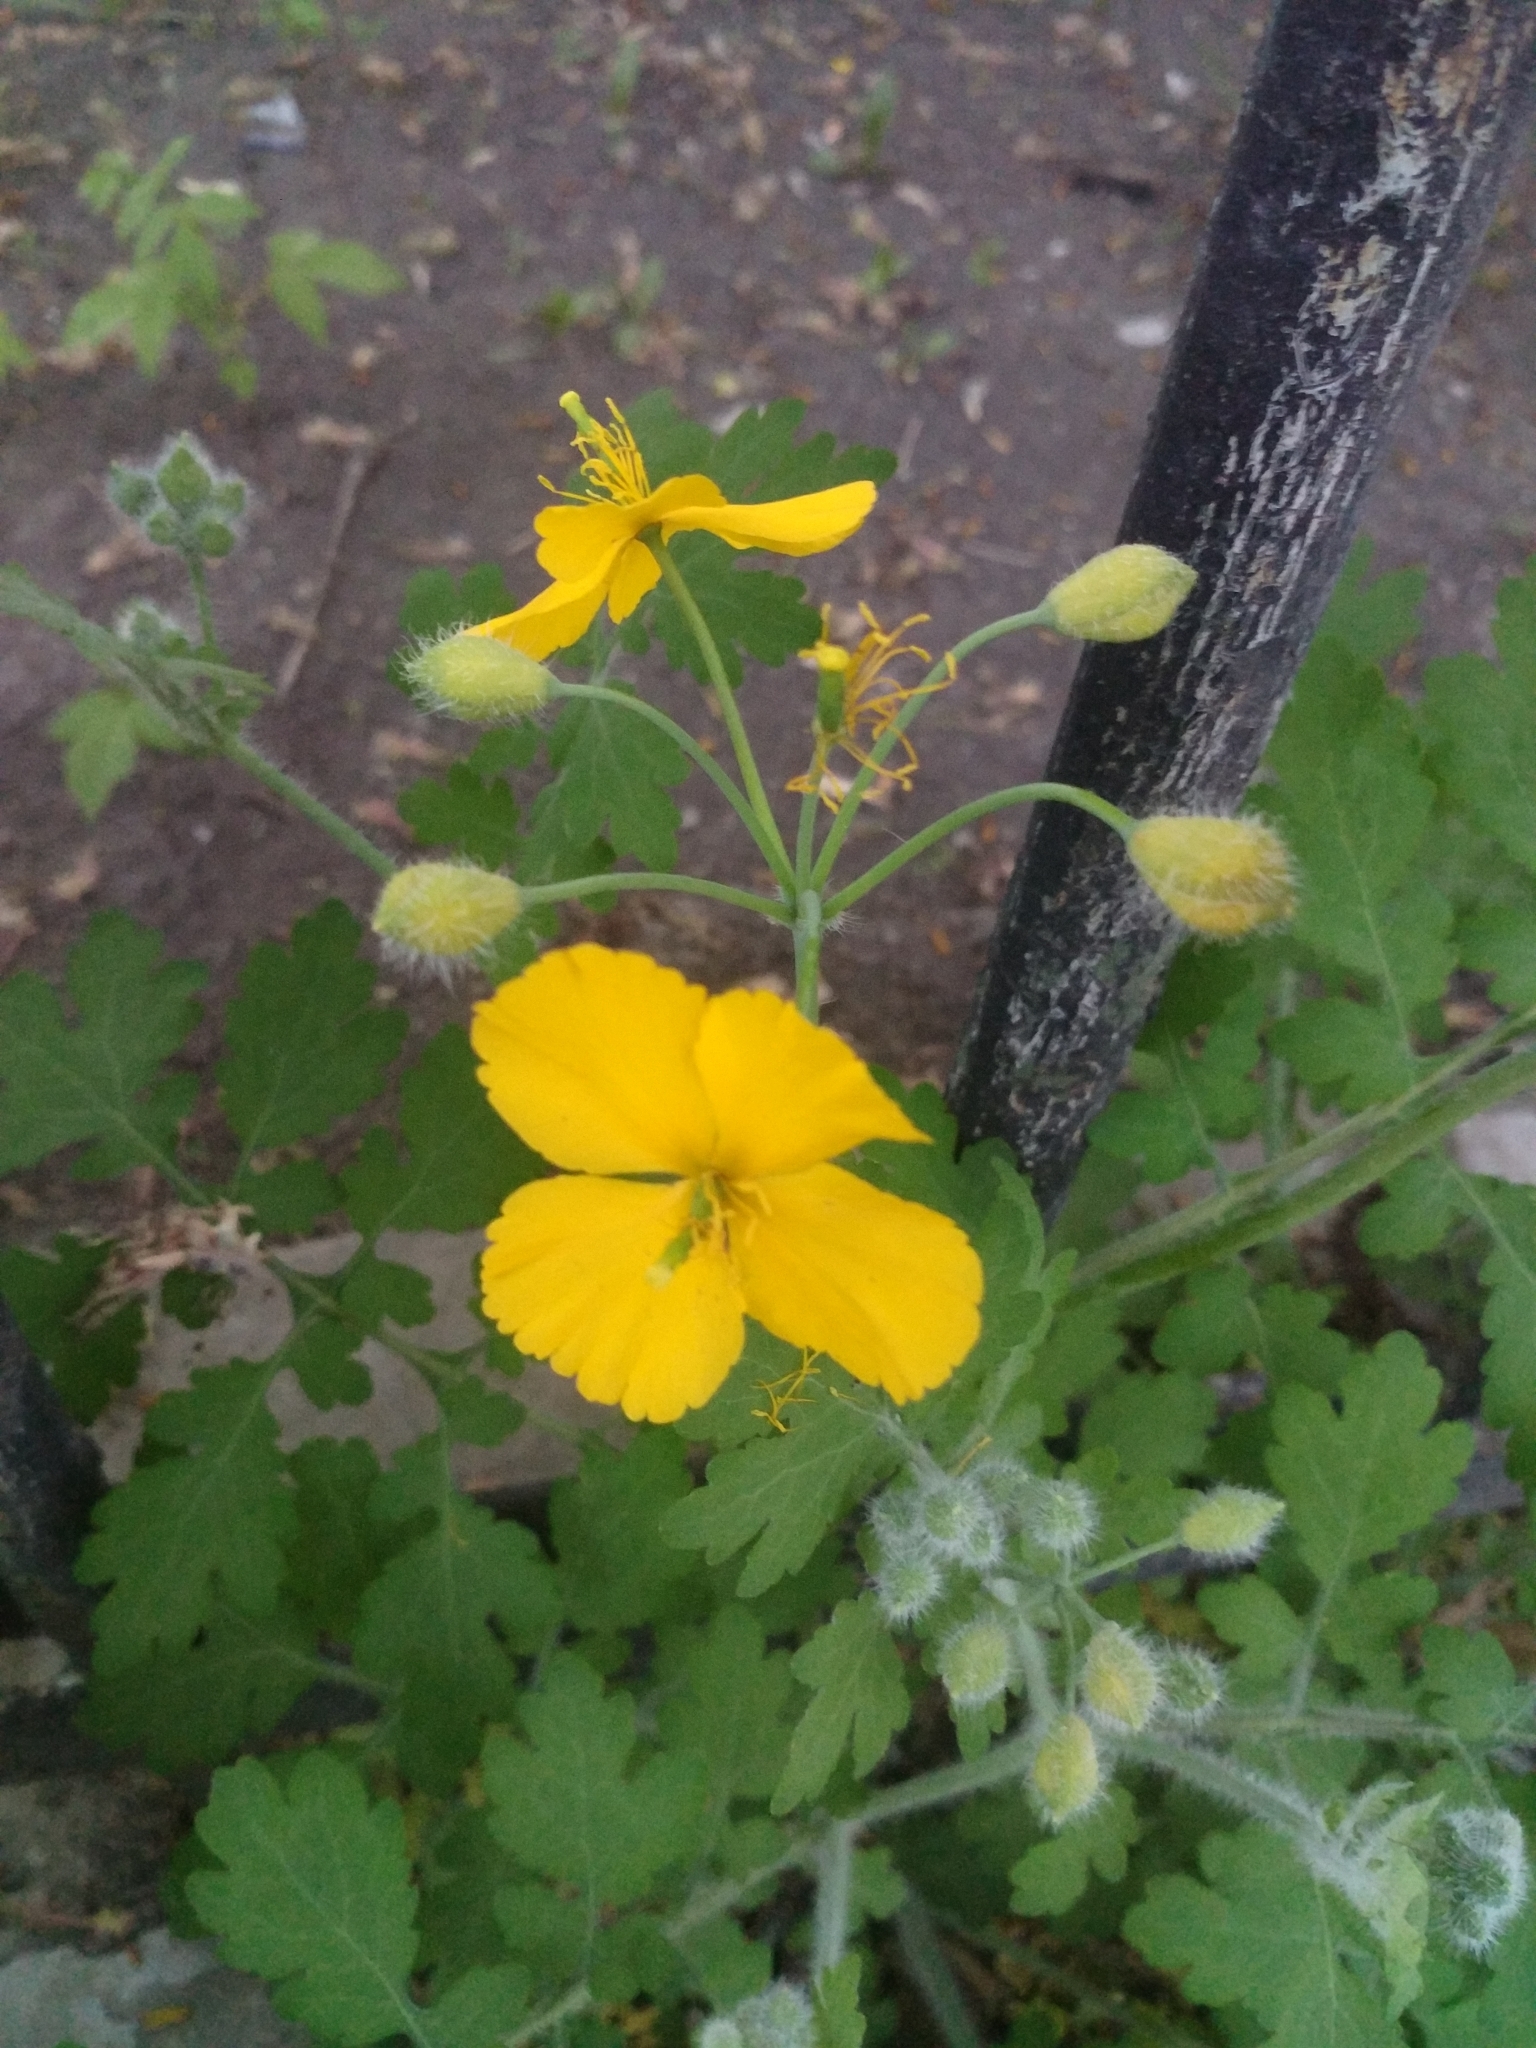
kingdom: Plantae
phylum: Tracheophyta
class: Magnoliopsida
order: Ranunculales
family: Papaveraceae
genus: Chelidonium
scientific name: Chelidonium majus
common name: Greater celandine
